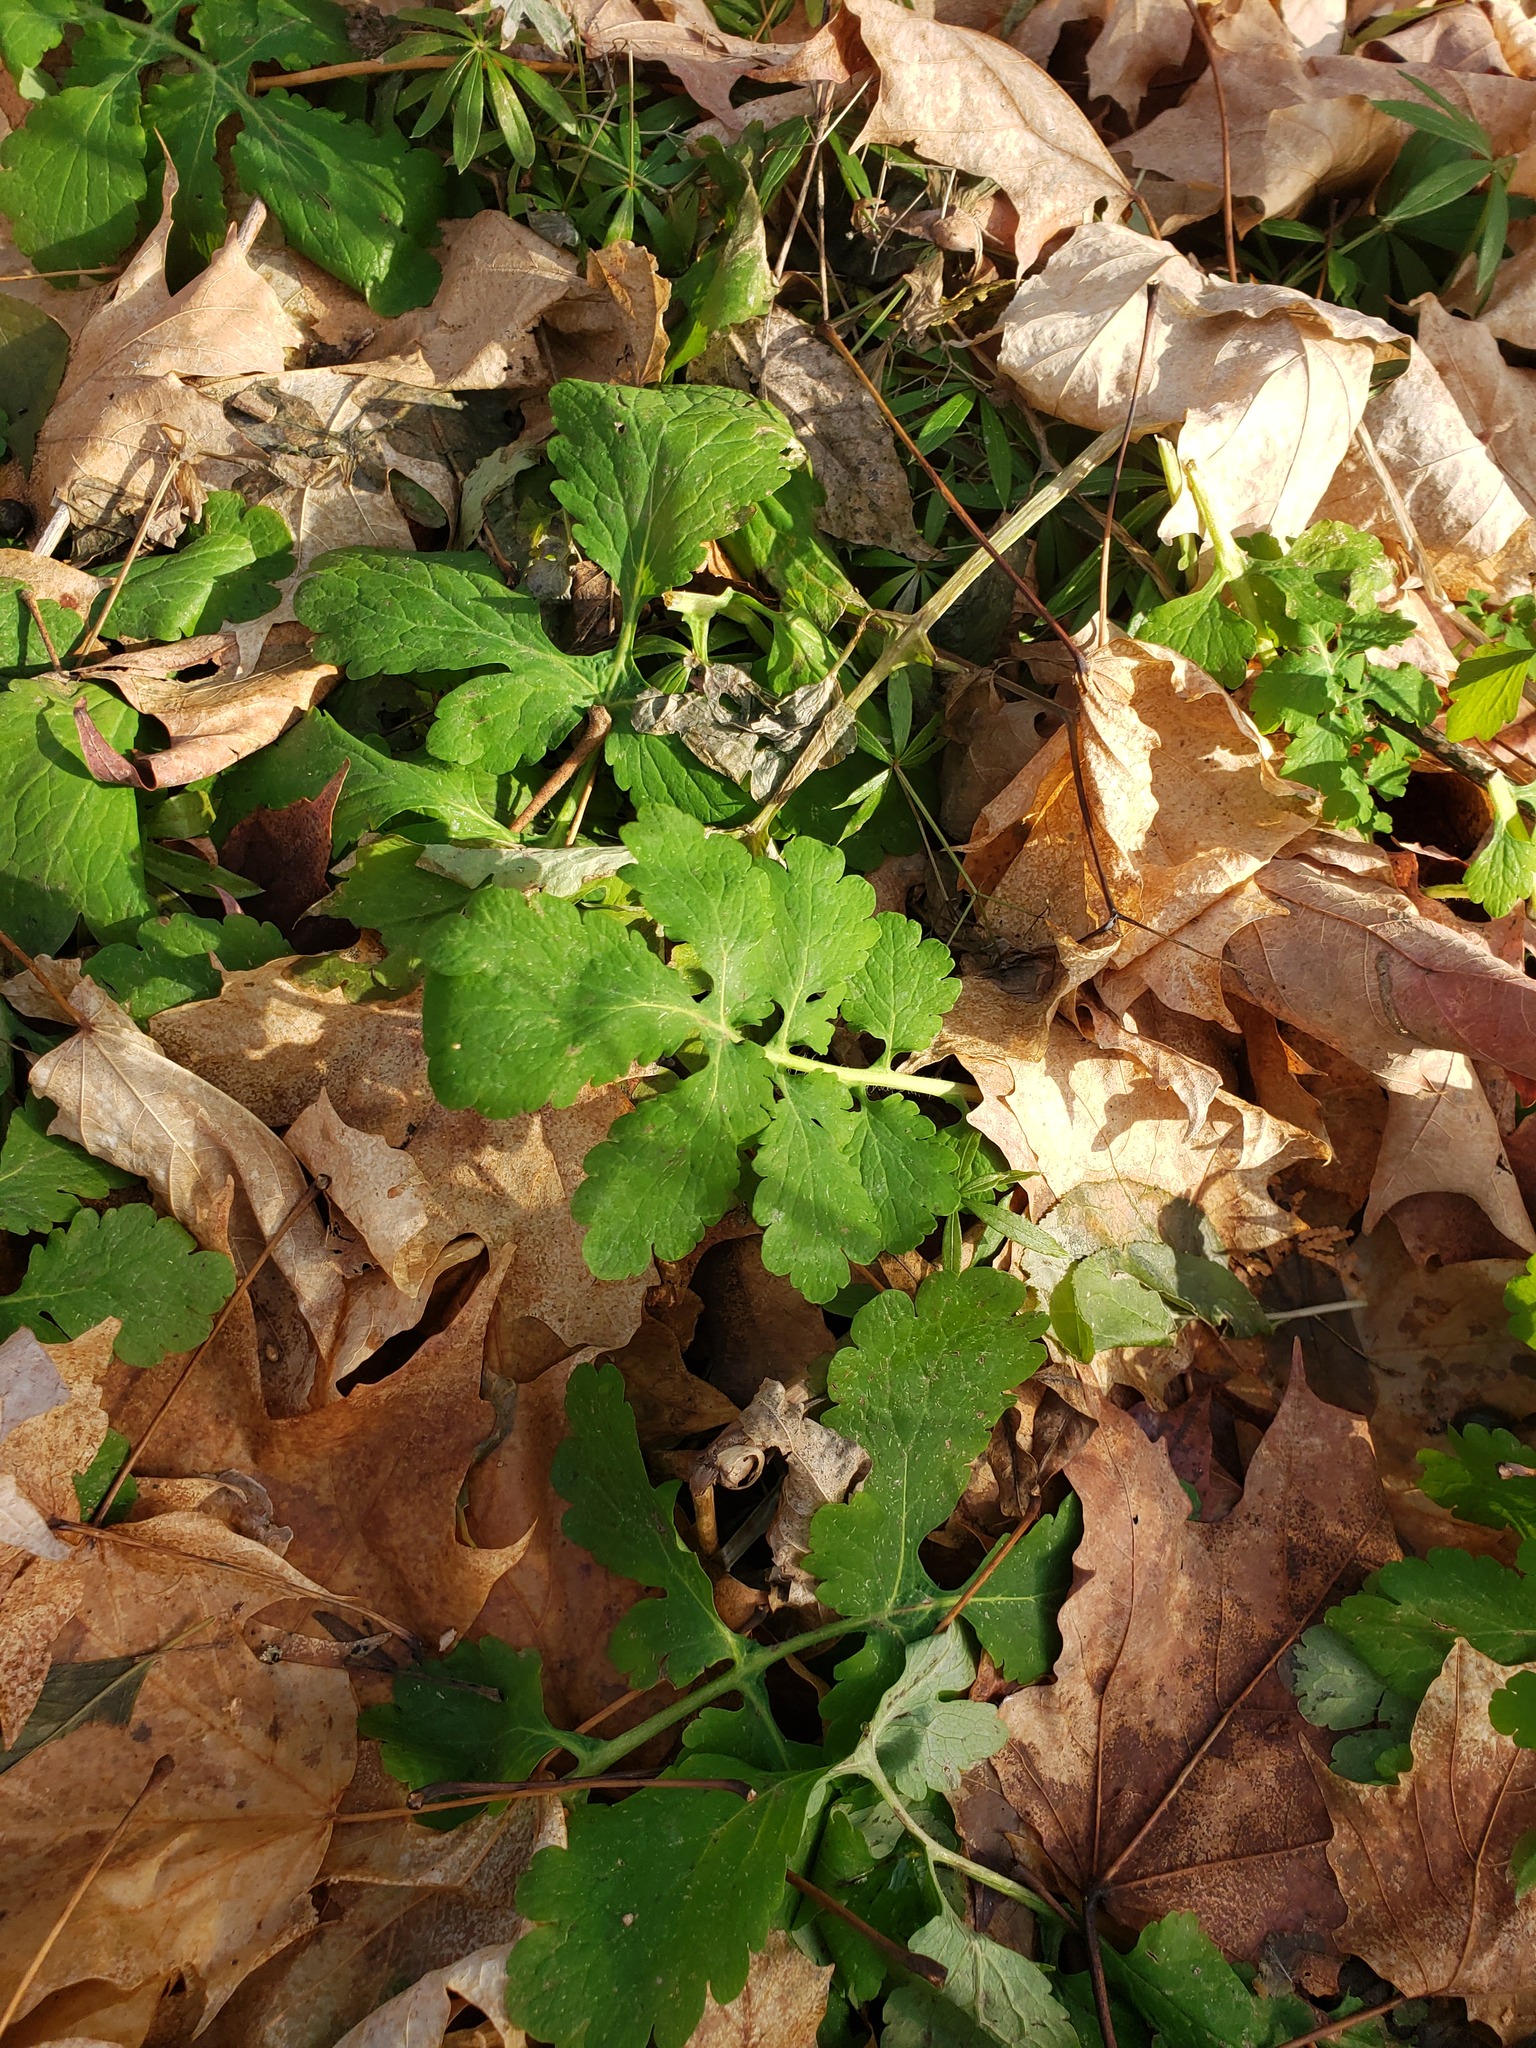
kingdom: Plantae
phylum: Tracheophyta
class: Magnoliopsida
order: Ranunculales
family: Papaveraceae
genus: Chelidonium
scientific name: Chelidonium majus
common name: Greater celandine
